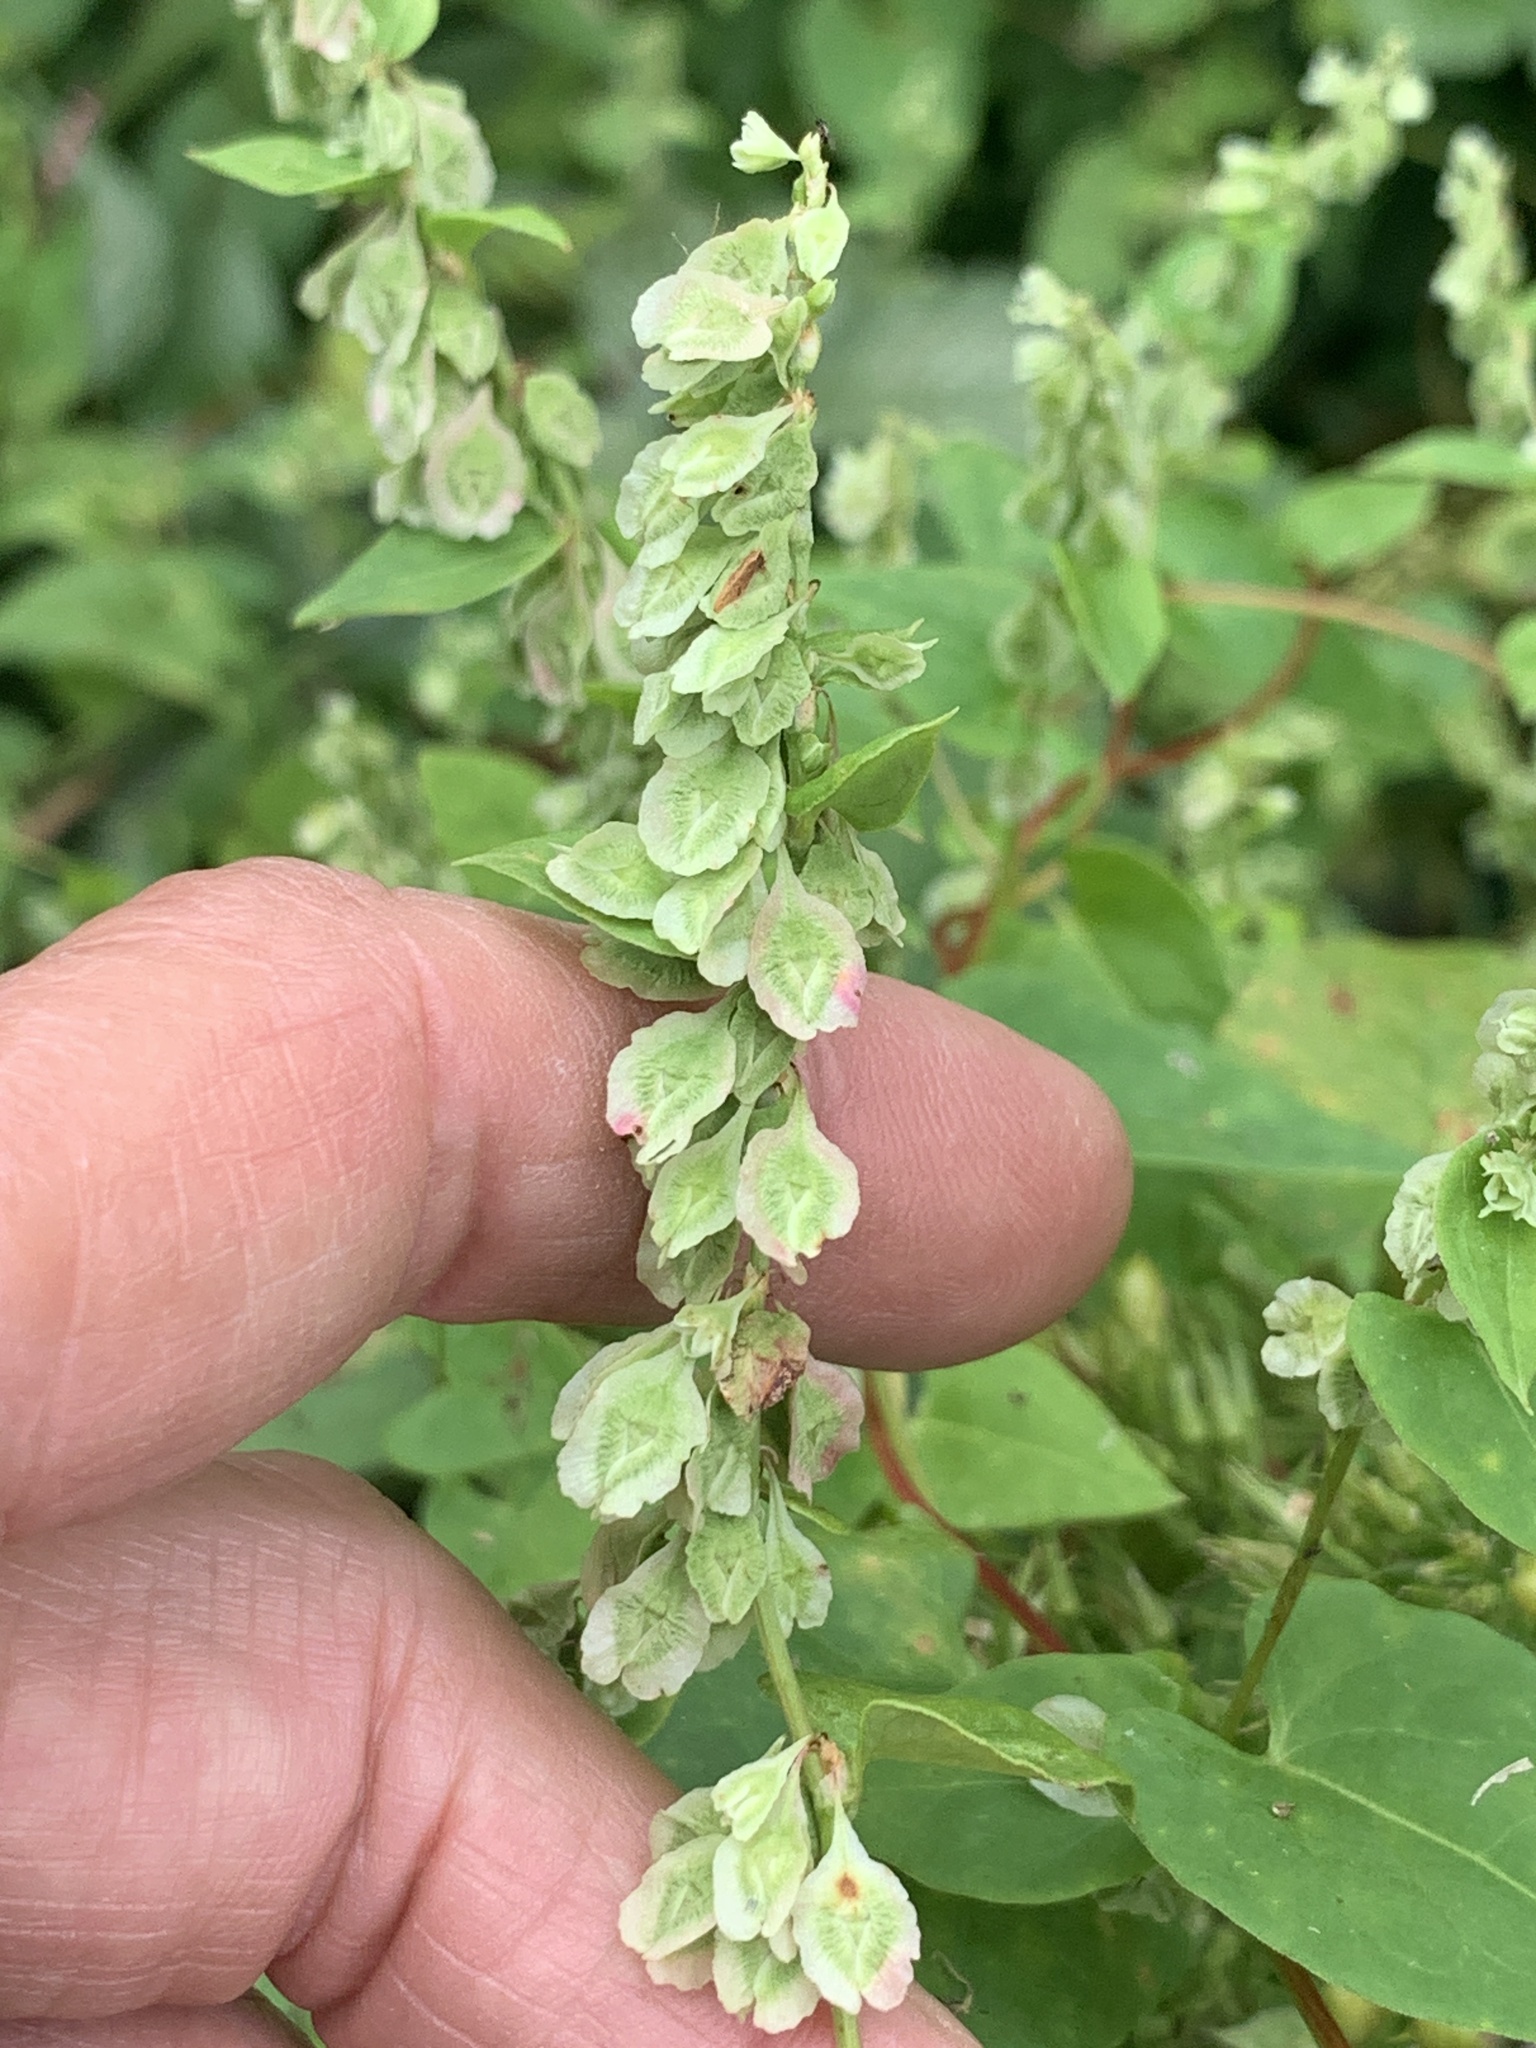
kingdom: Plantae
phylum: Tracheophyta
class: Magnoliopsida
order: Caryophyllales
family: Polygonaceae
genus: Fallopia
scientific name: Fallopia scandens
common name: Climbing false buckwheat
